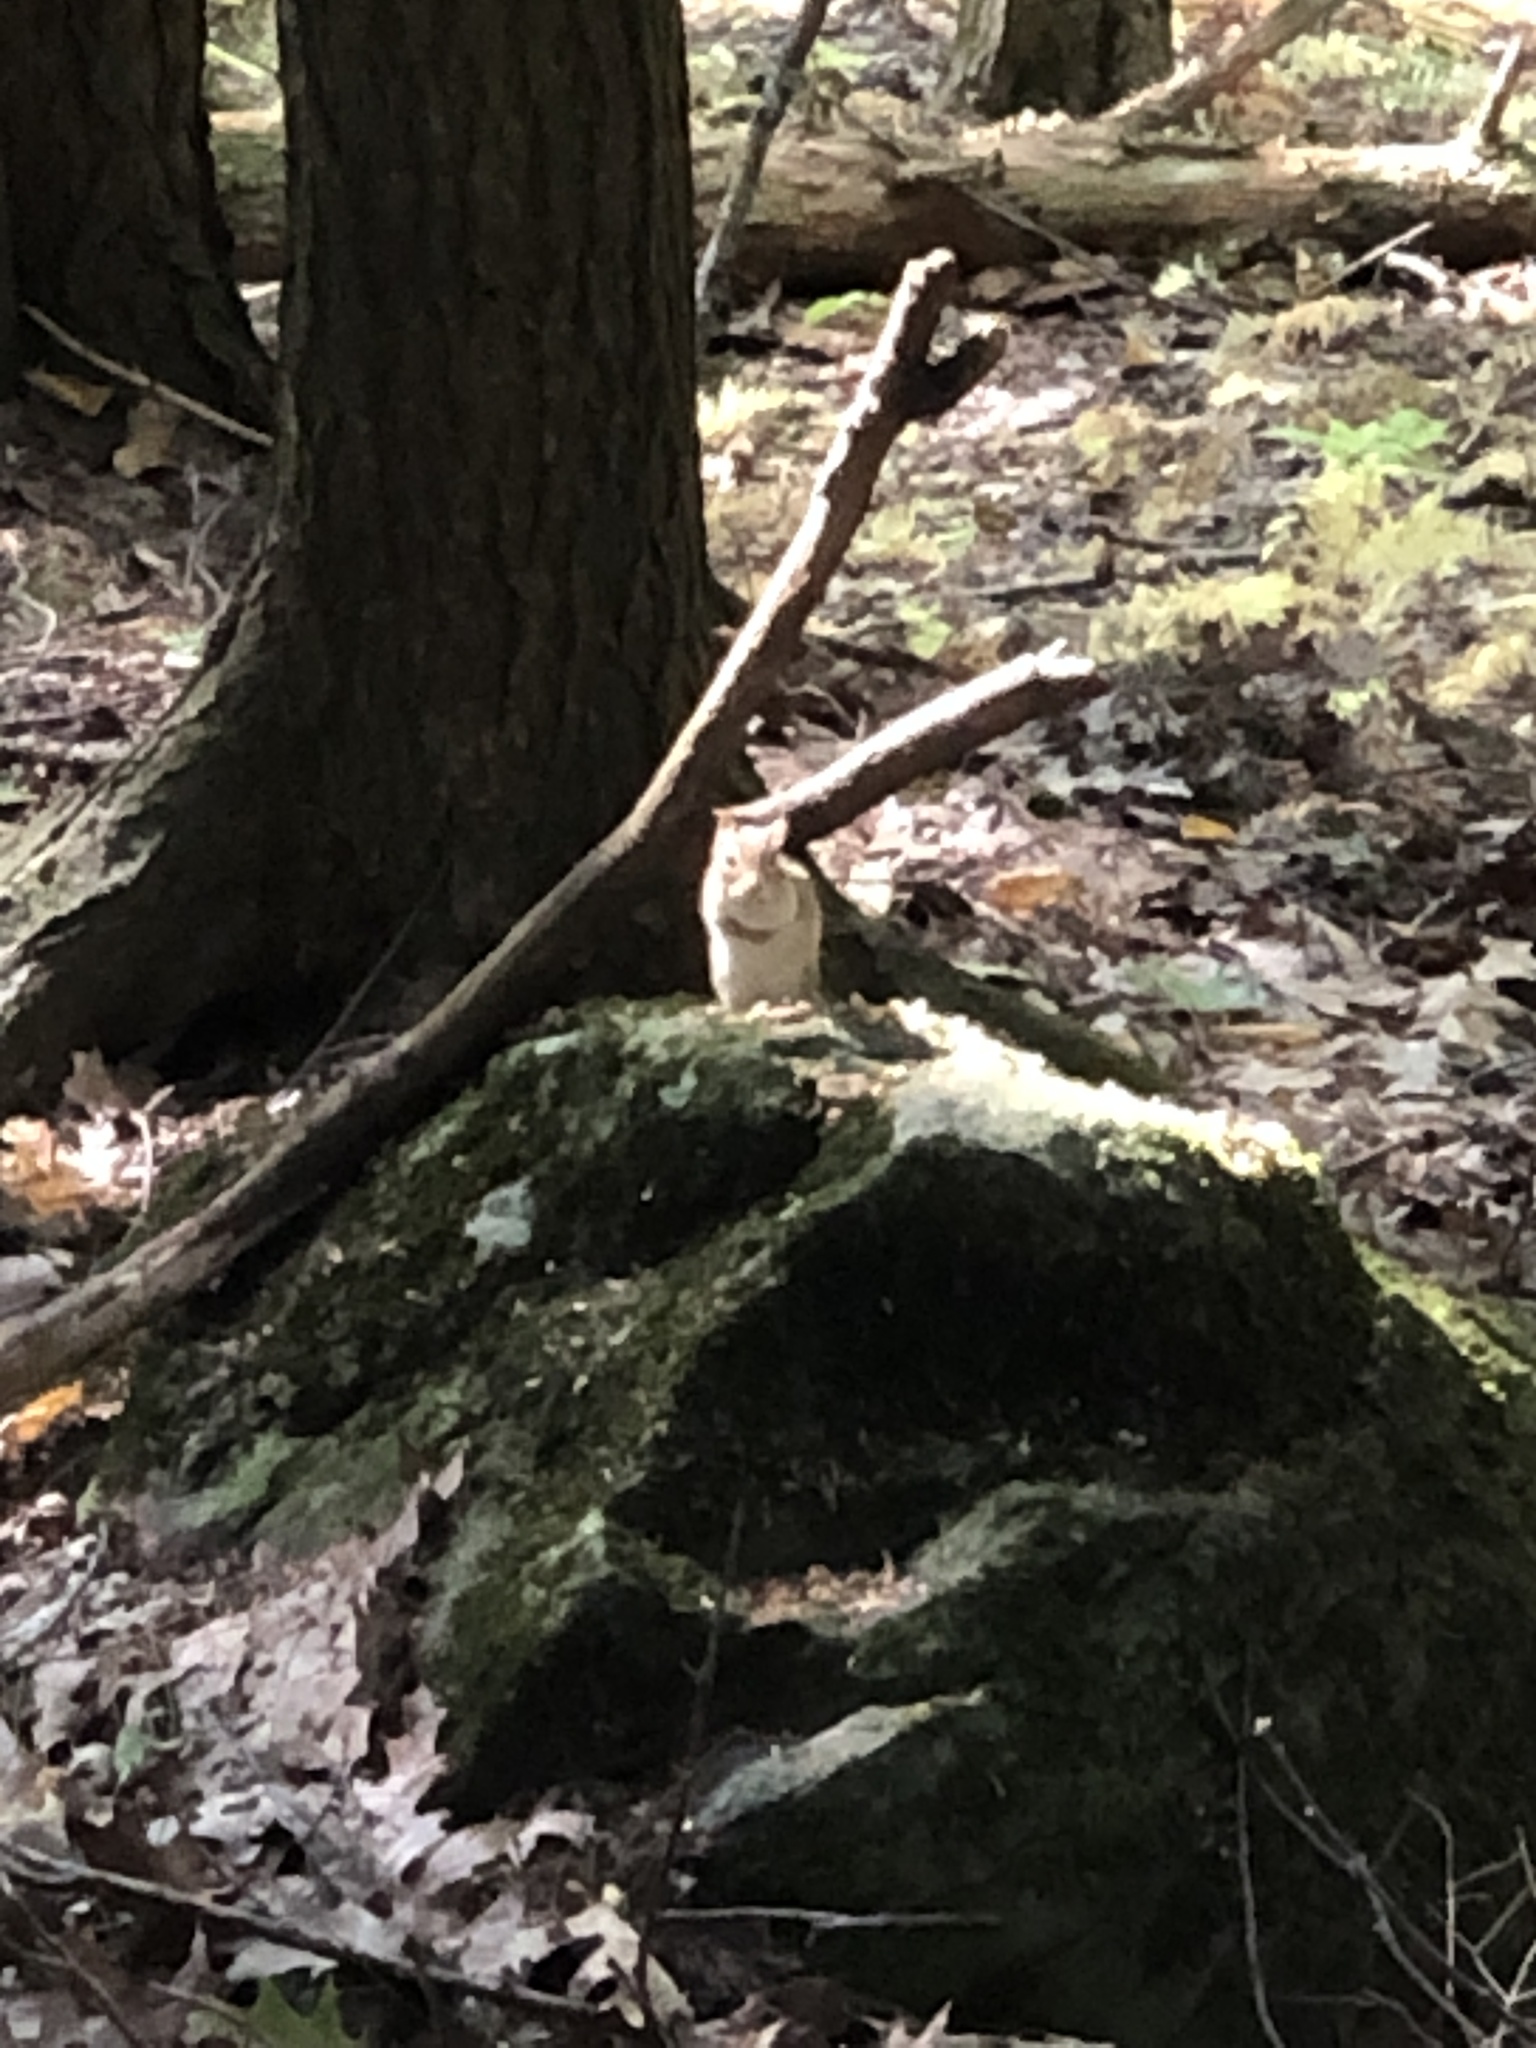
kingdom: Animalia
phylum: Chordata
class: Mammalia
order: Rodentia
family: Sciuridae
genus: Tamias
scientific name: Tamias striatus
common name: Eastern chipmunk
